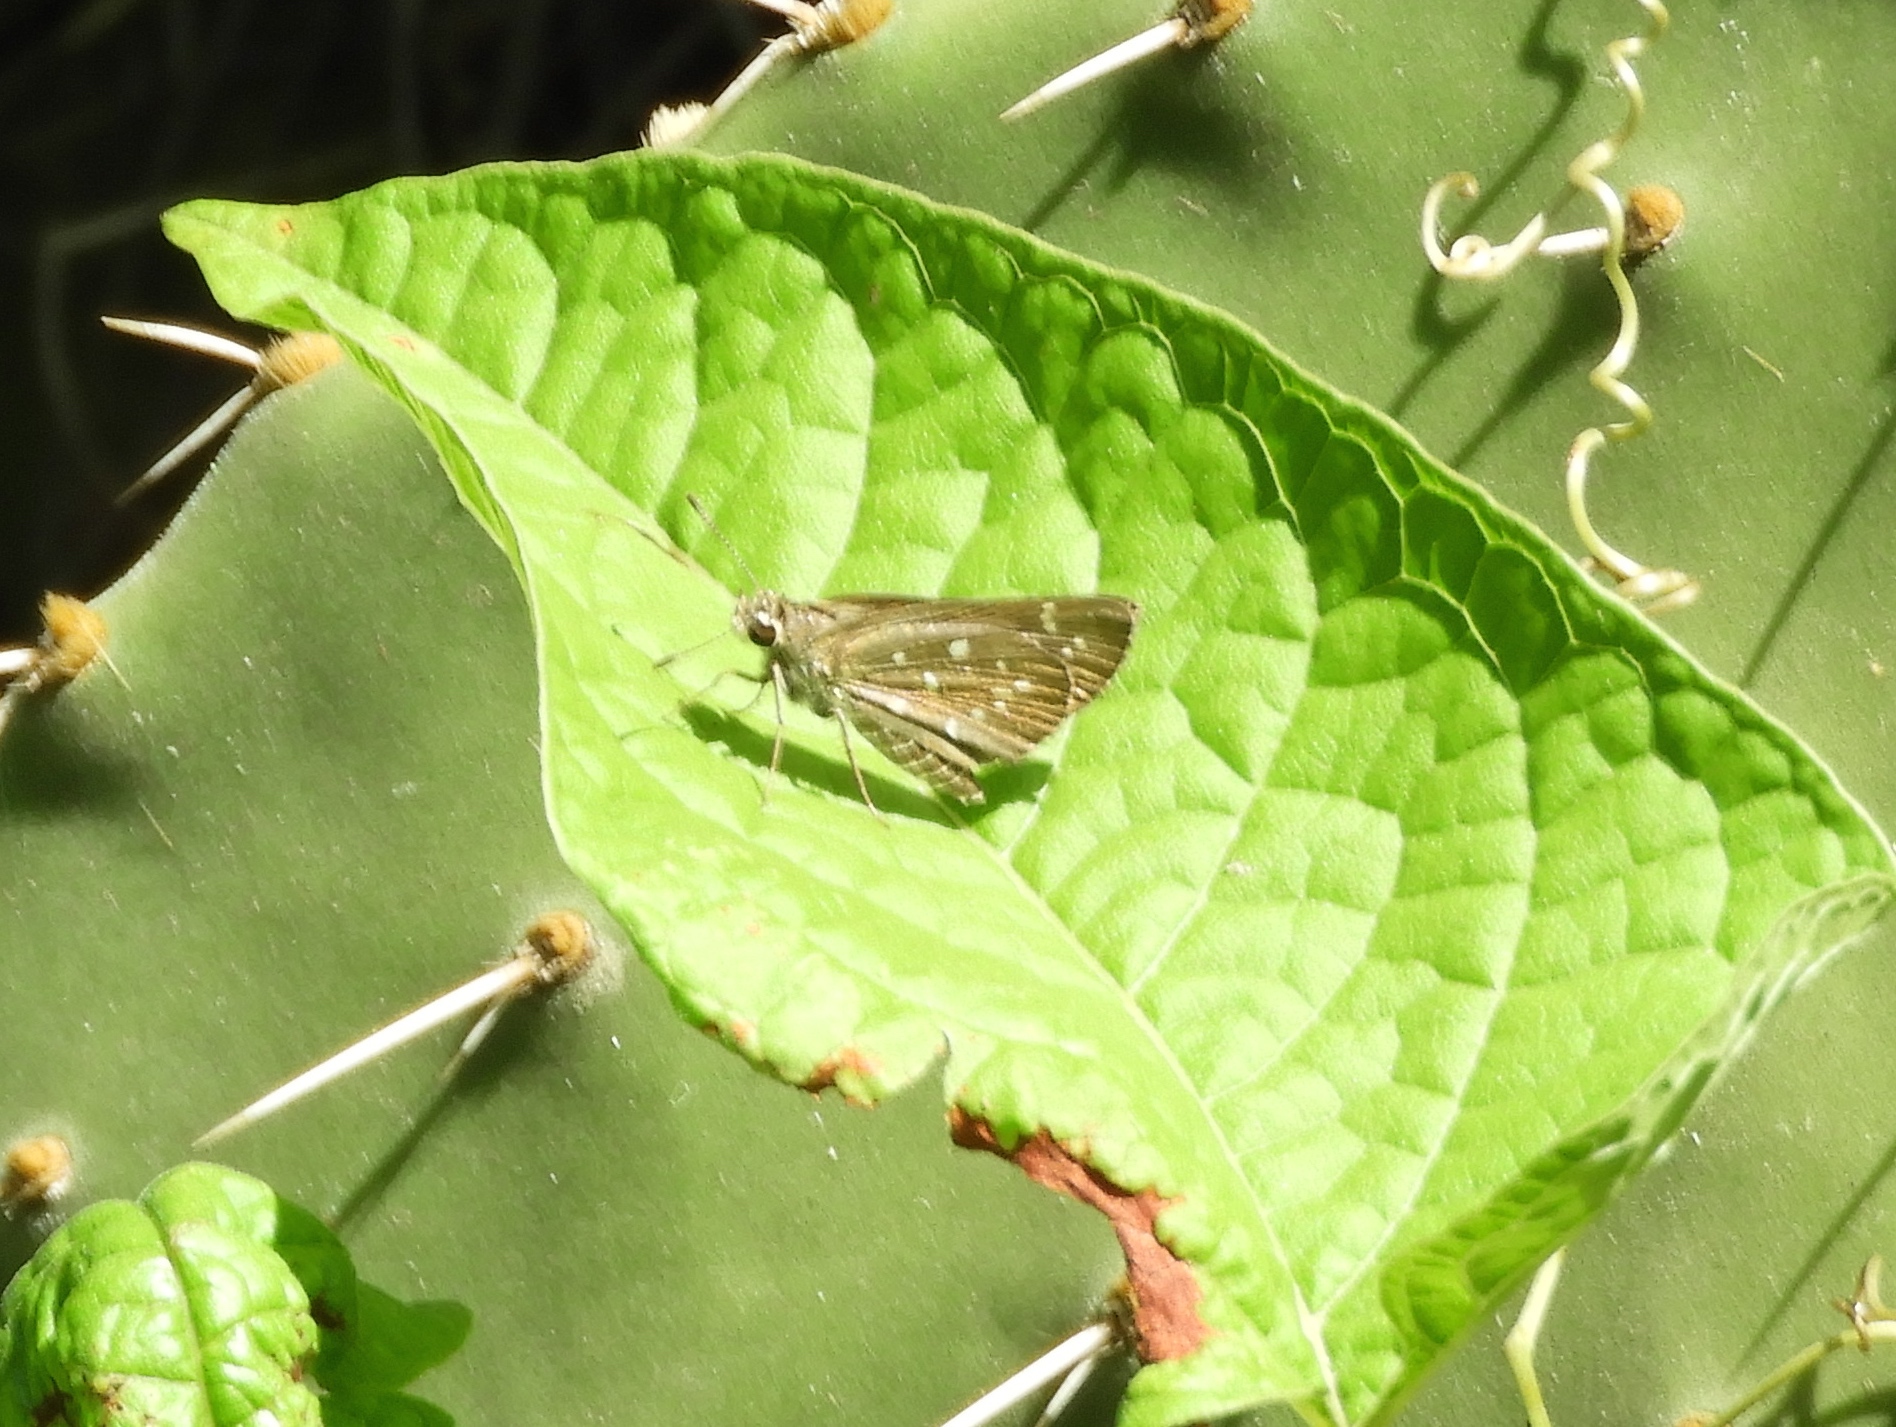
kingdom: Animalia
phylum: Arthropoda
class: Insecta
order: Lepidoptera
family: Hesperiidae
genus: Mastor
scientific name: Mastor tolteca
